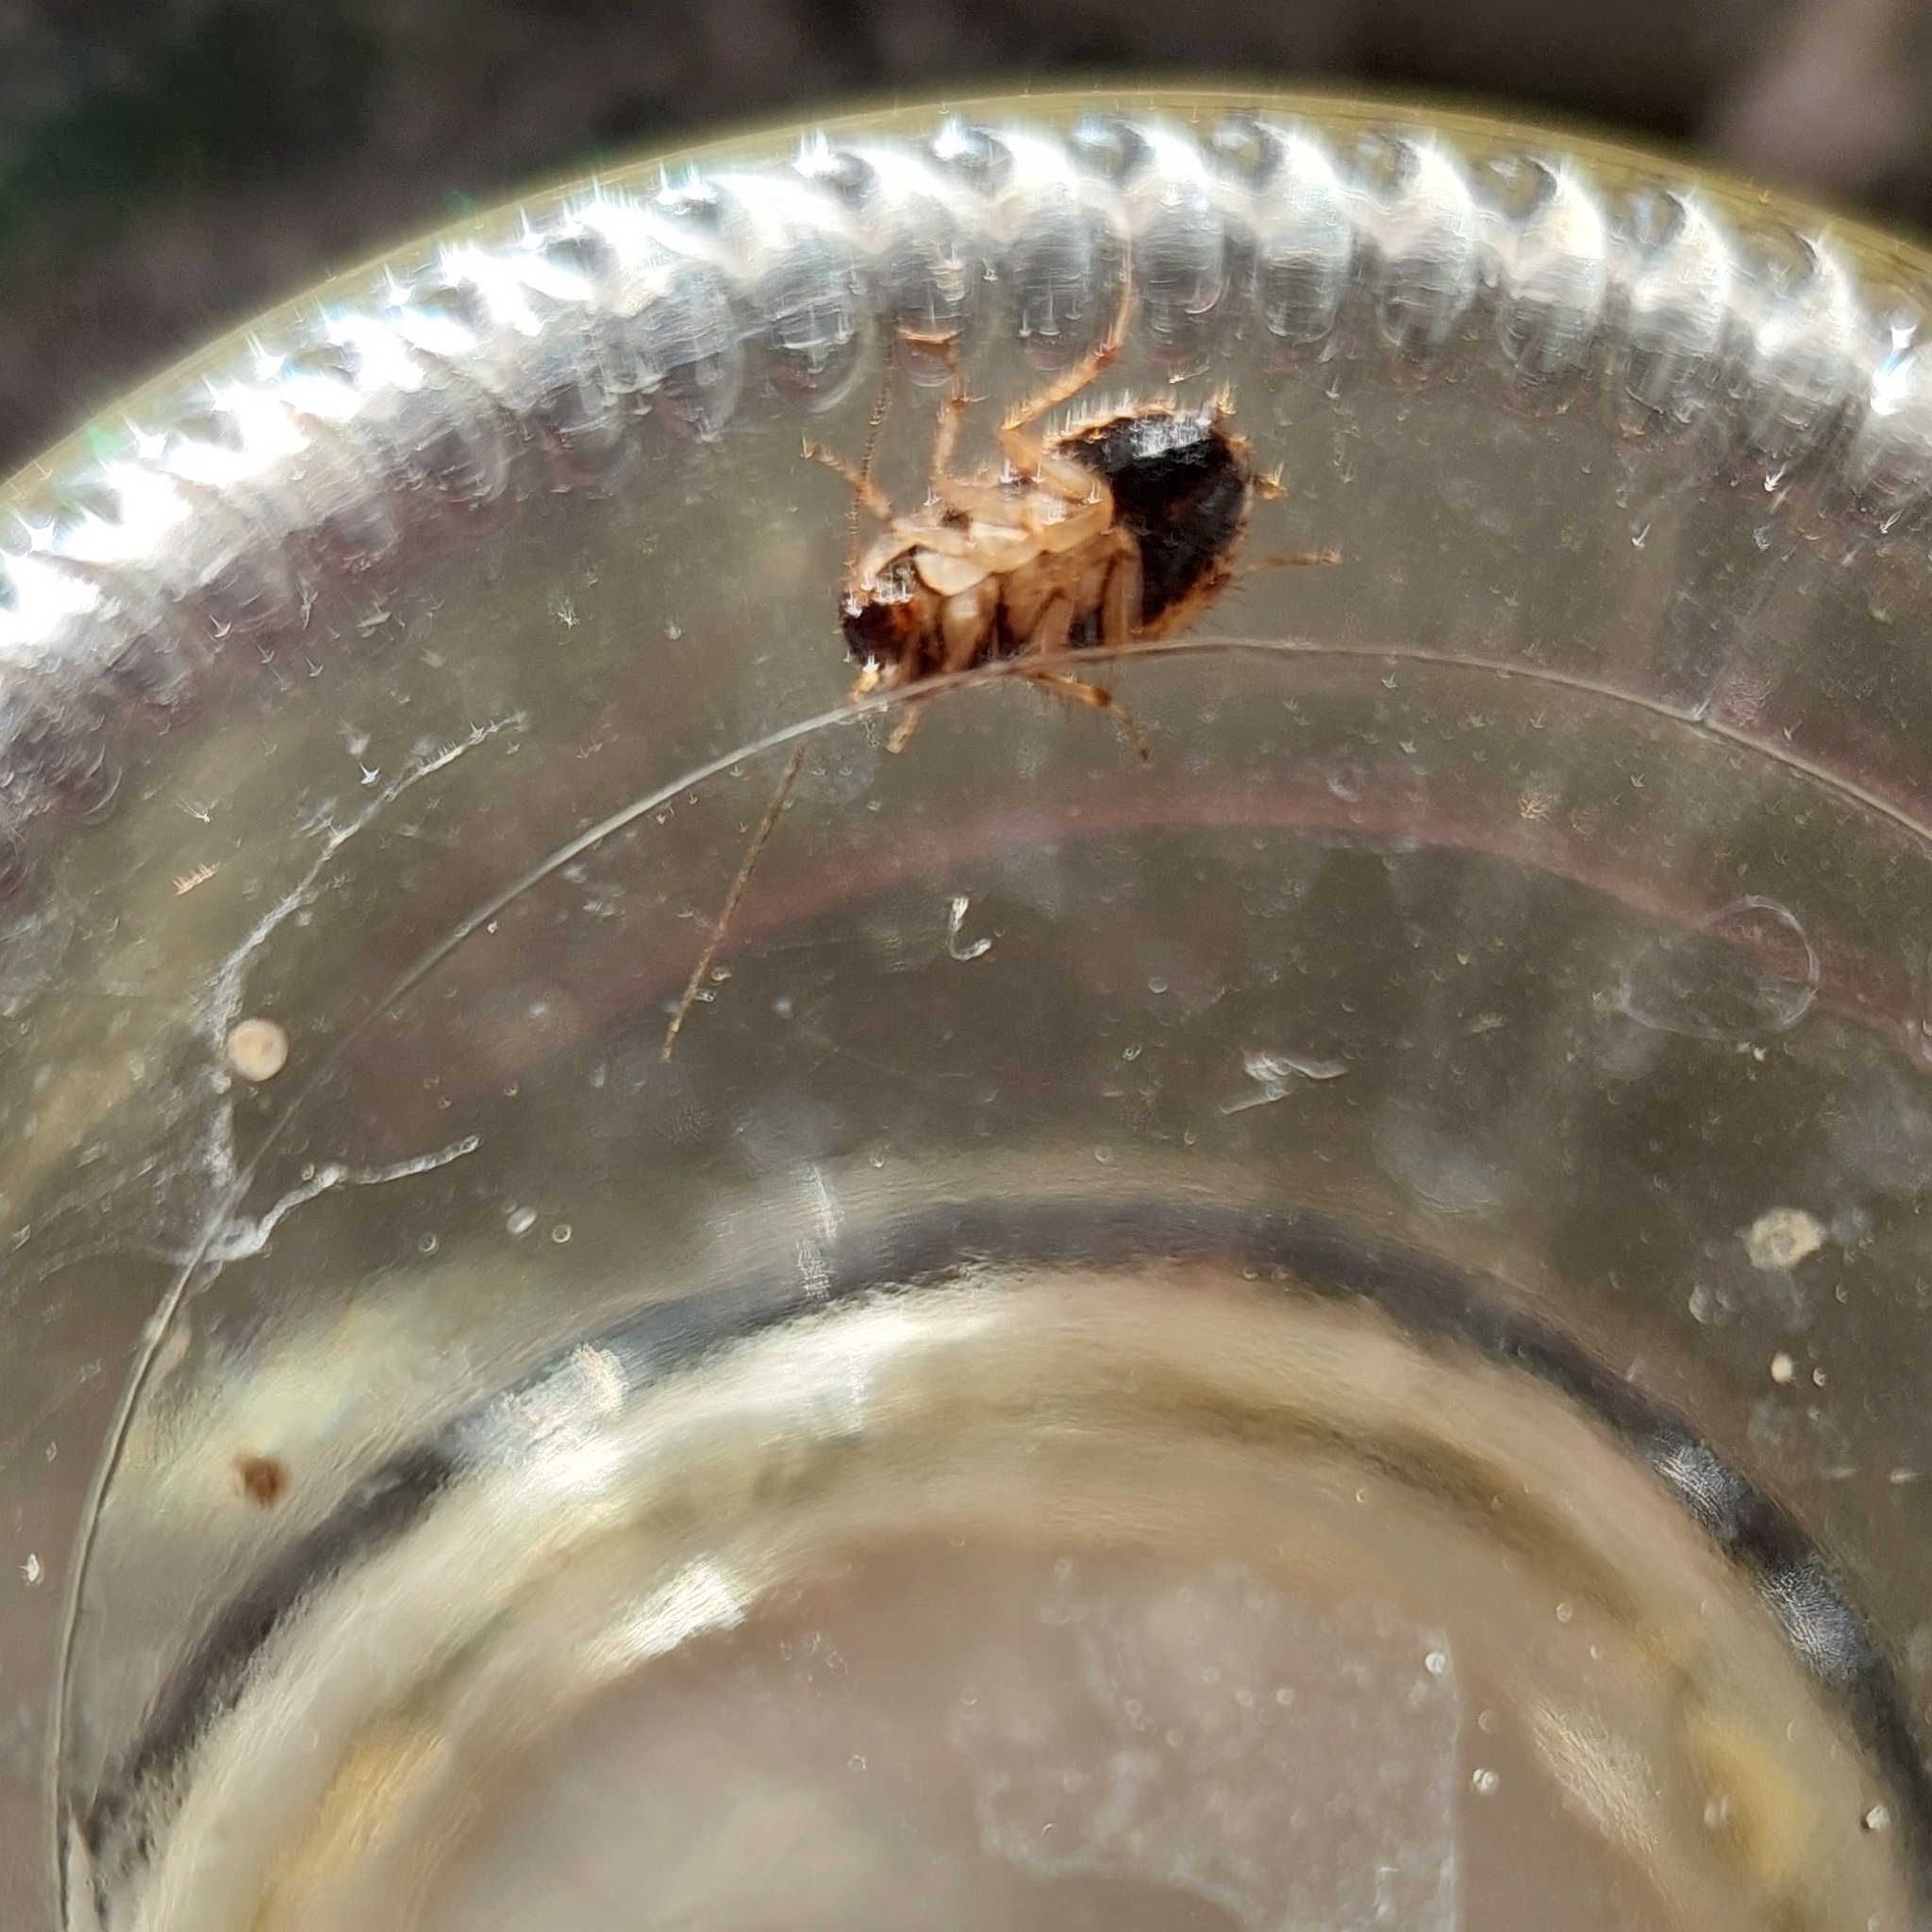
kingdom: Animalia
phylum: Arthropoda
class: Insecta
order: Blattodea
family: Ectobiidae
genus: Agmoblatta
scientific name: Agmoblatta thaxteri
